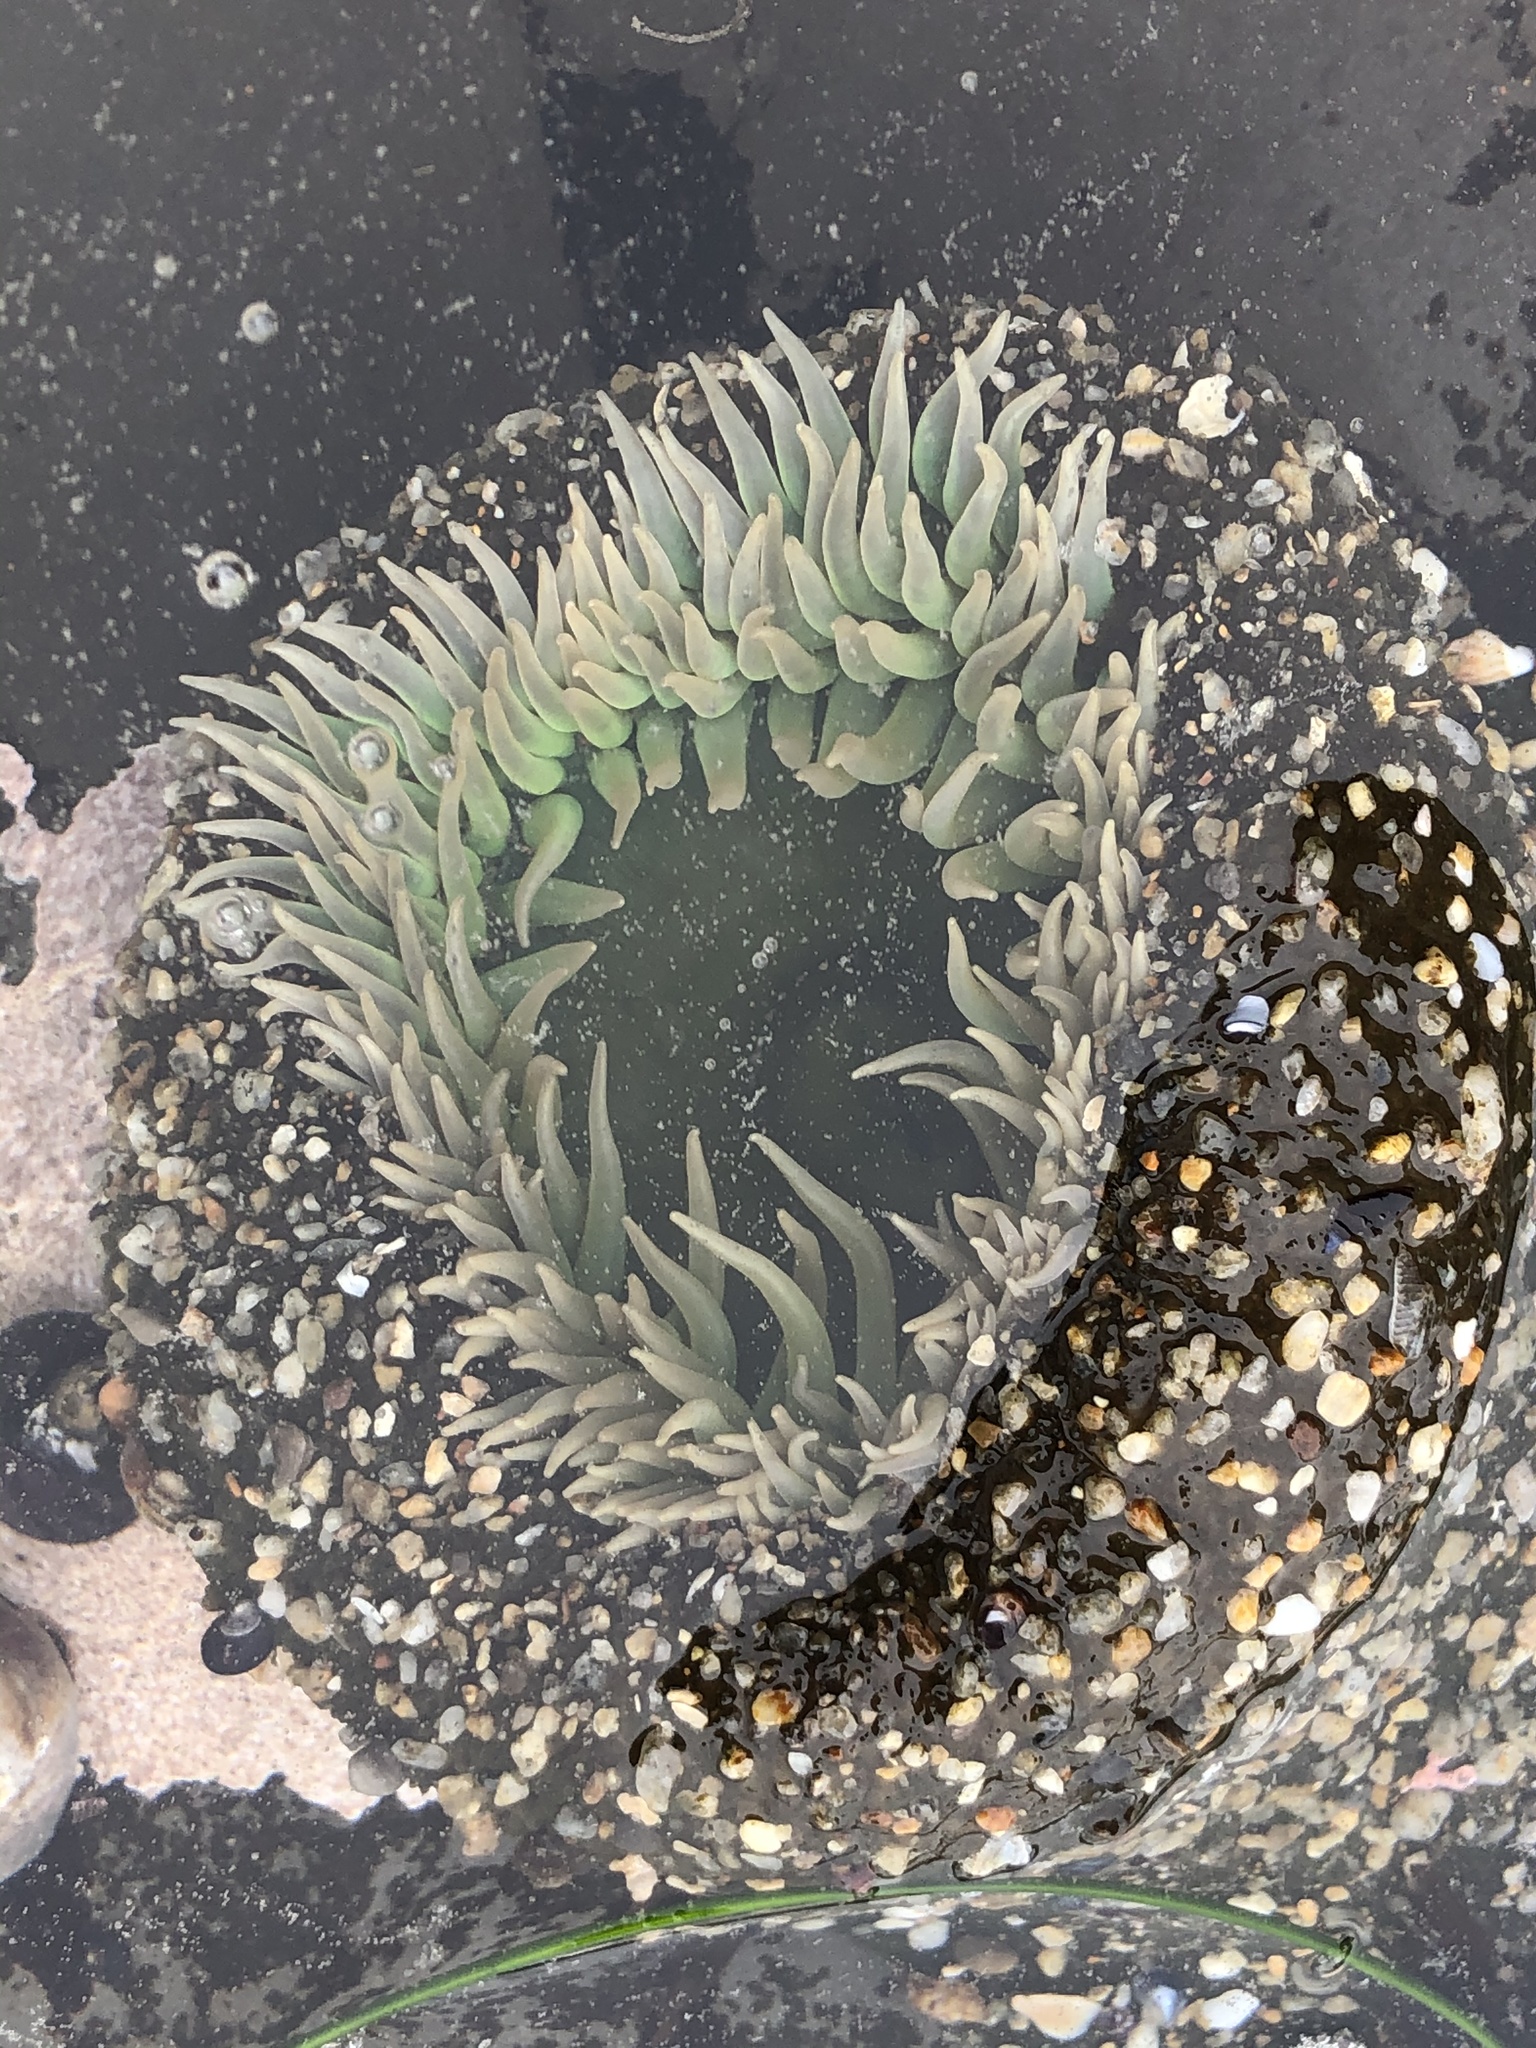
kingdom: Animalia
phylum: Cnidaria
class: Anthozoa
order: Actiniaria
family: Actiniidae
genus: Anthopleura
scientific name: Anthopleura xanthogrammica
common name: Giant green anemone
